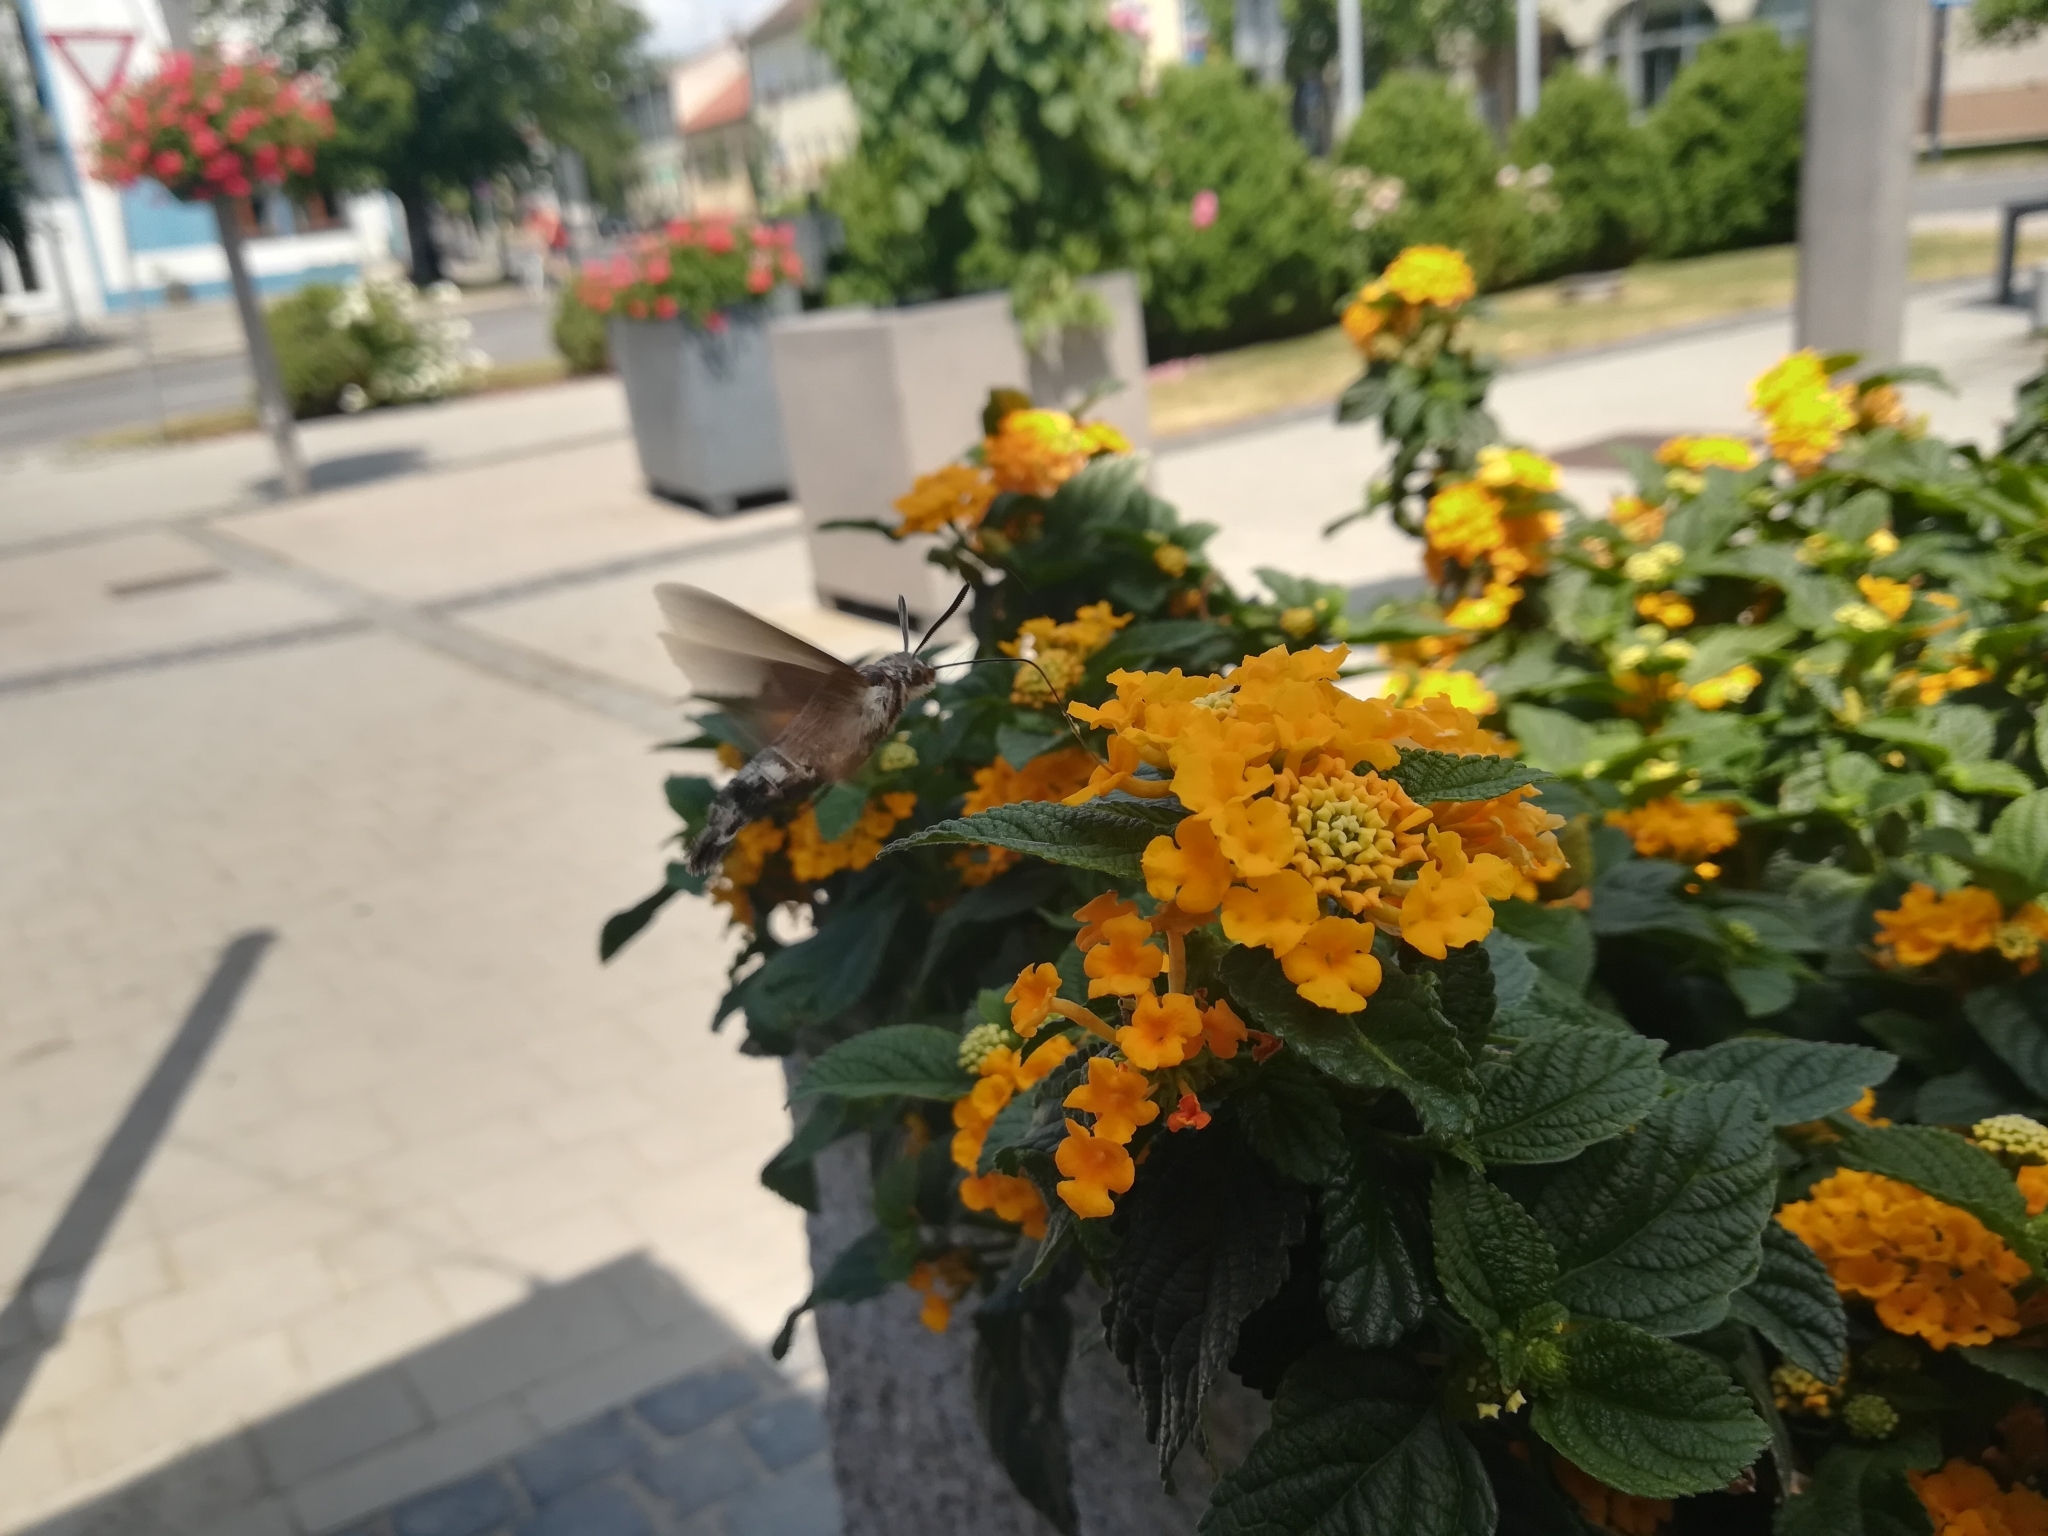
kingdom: Animalia
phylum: Arthropoda
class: Insecta
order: Lepidoptera
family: Sphingidae
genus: Macroglossum
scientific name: Macroglossum stellatarum
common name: Humming-bird hawk-moth
